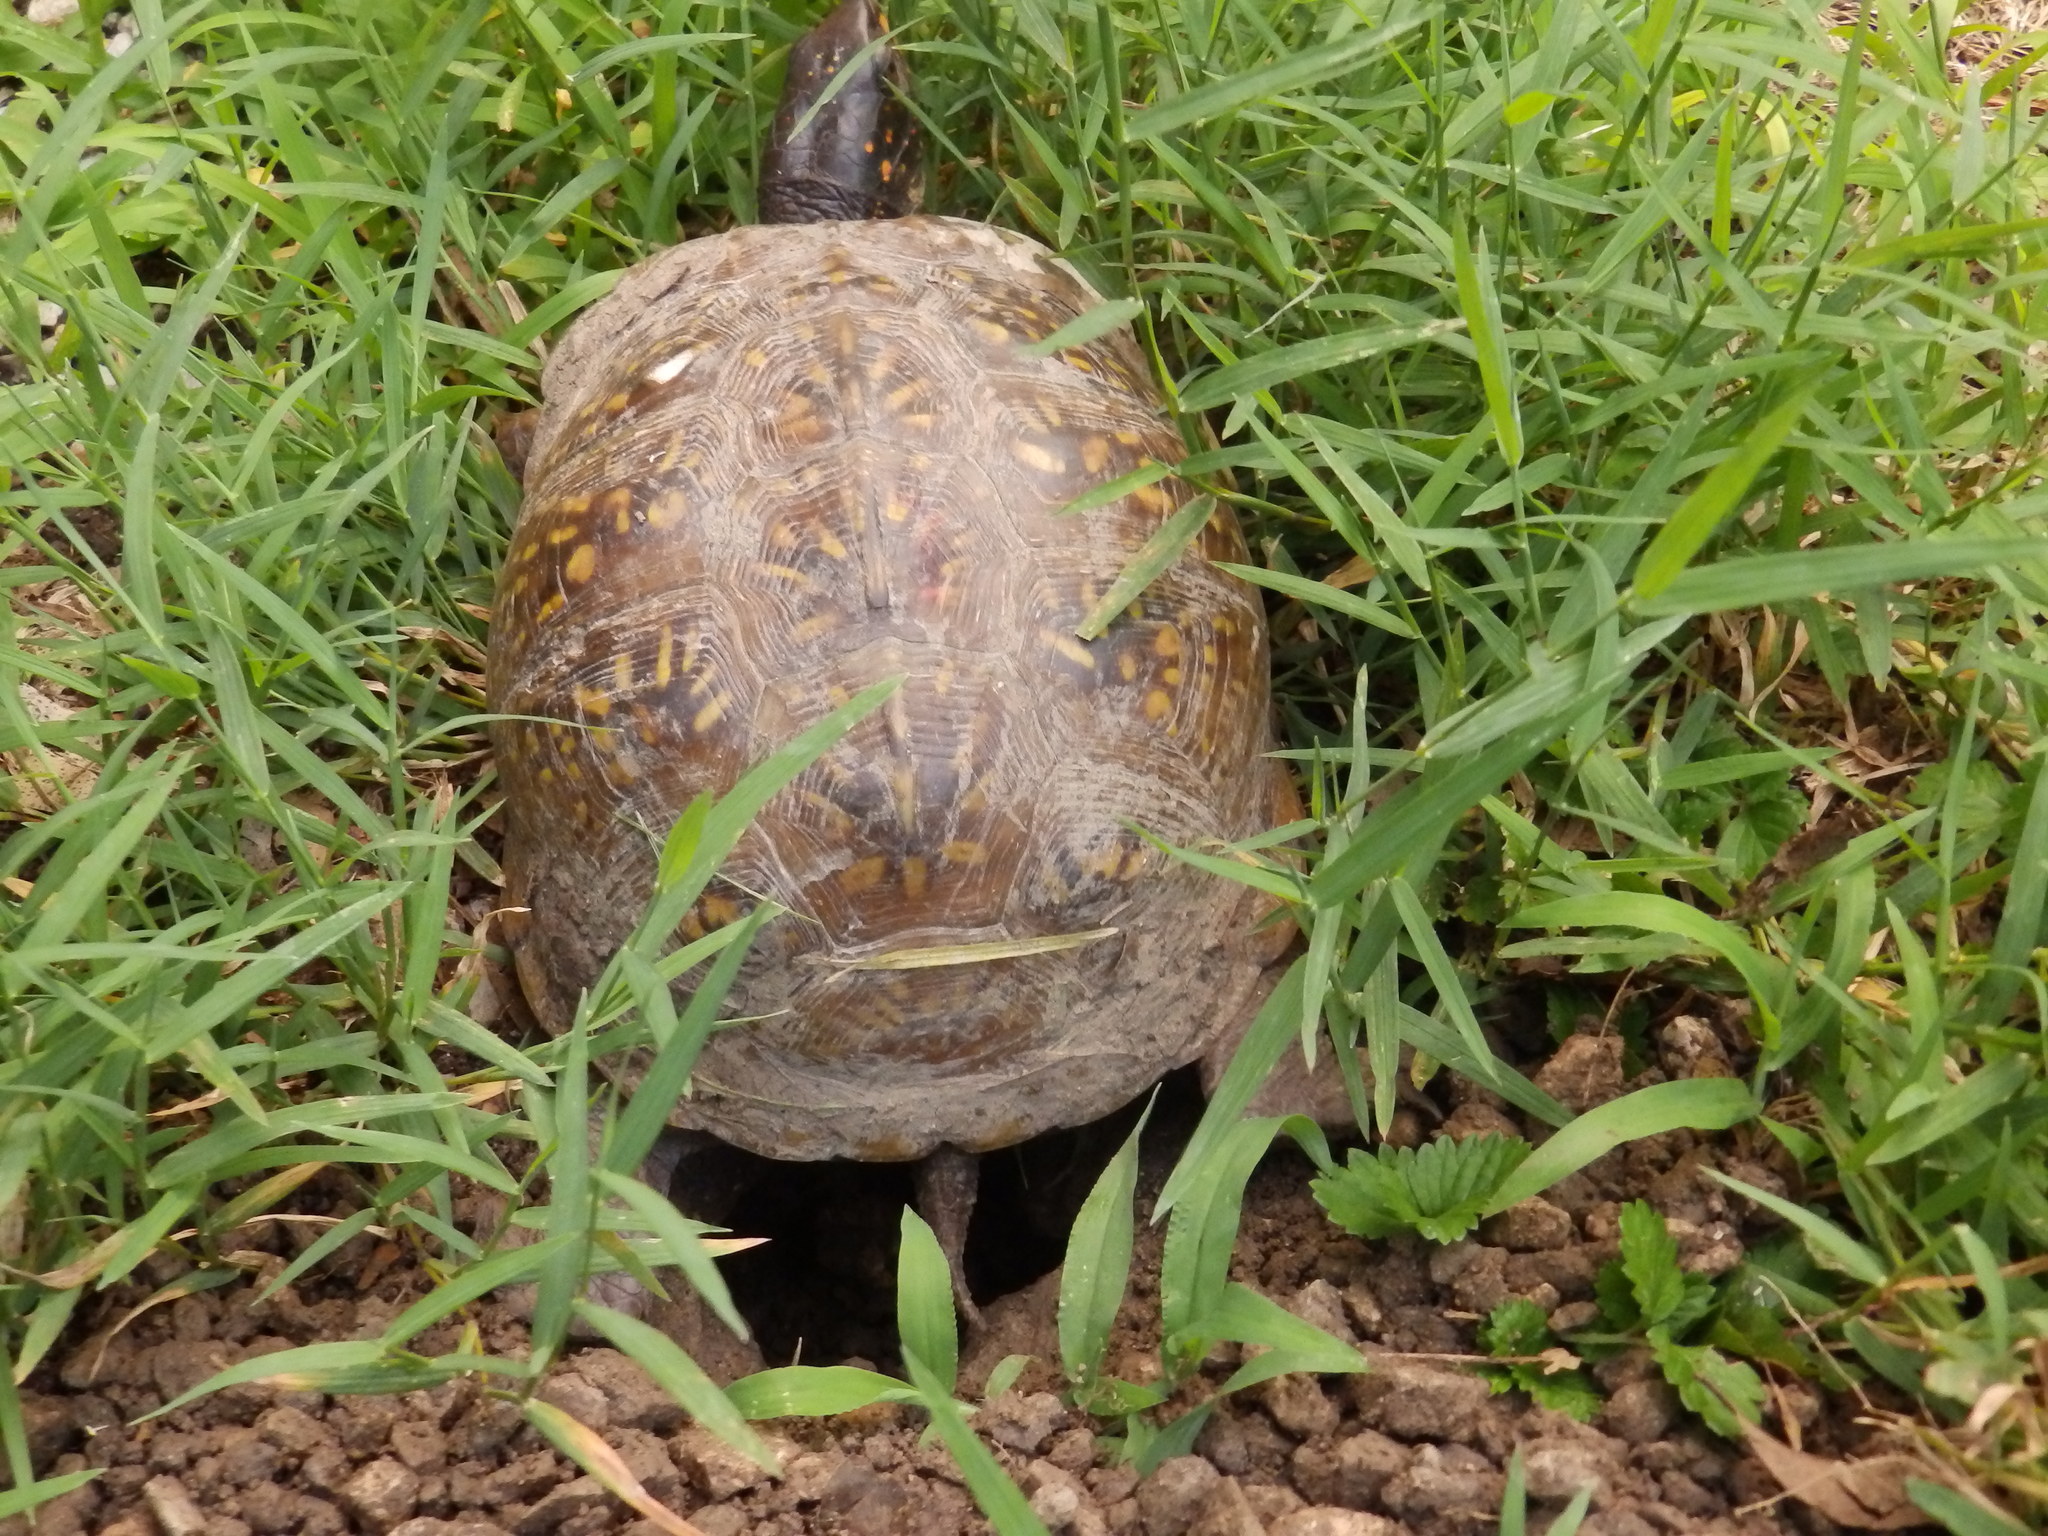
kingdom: Animalia
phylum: Chordata
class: Testudines
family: Emydidae
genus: Terrapene
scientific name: Terrapene carolina
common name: Common box turtle
